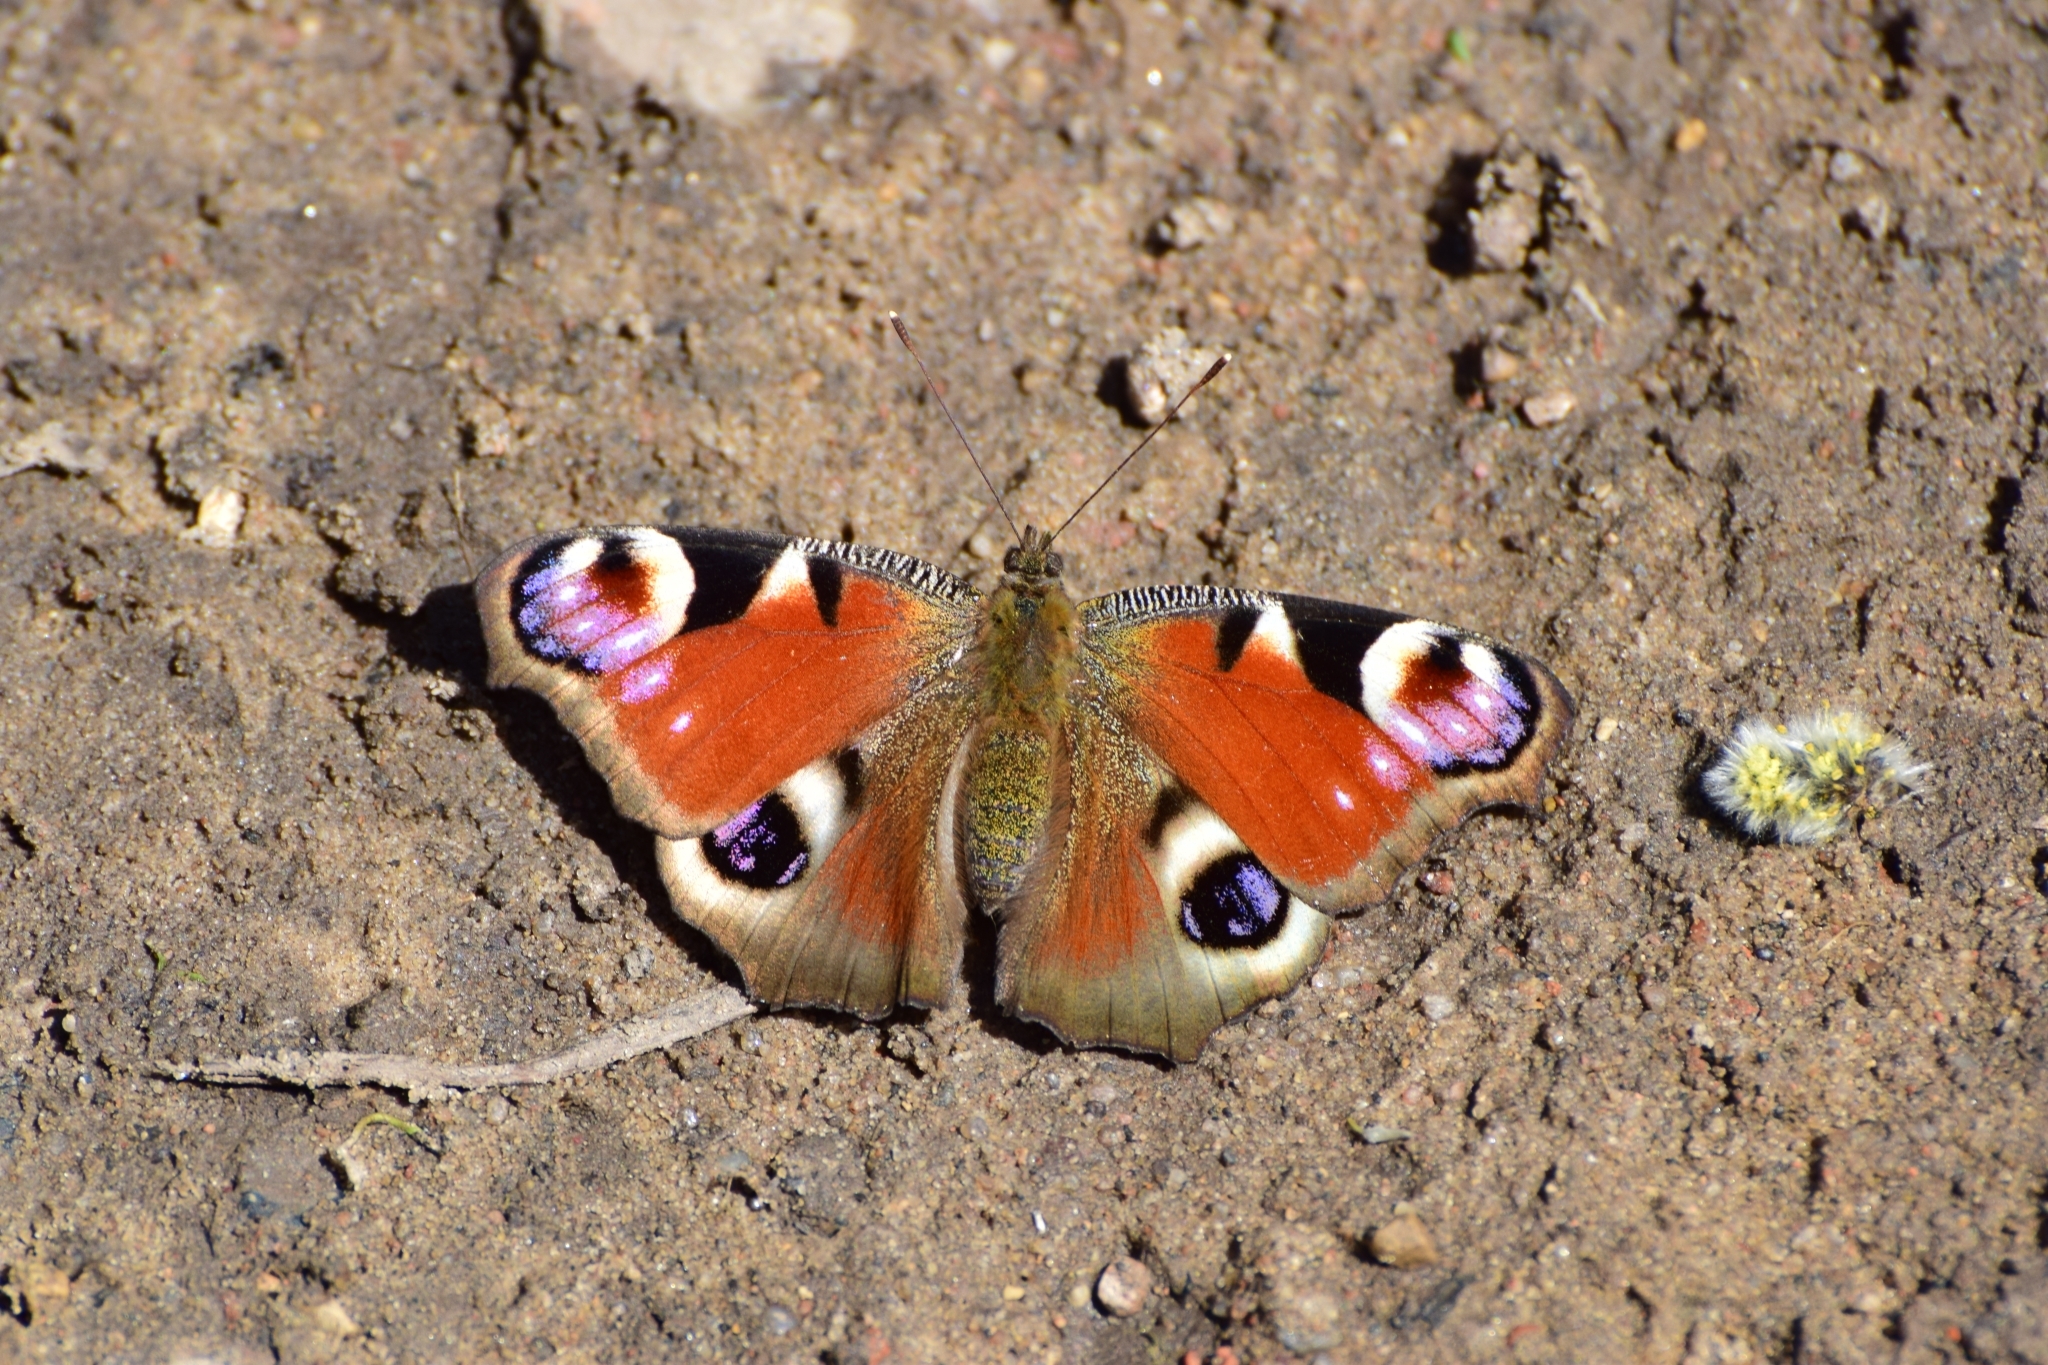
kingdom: Animalia
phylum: Arthropoda
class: Insecta
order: Lepidoptera
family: Nymphalidae
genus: Aglais
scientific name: Aglais io
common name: Peacock
